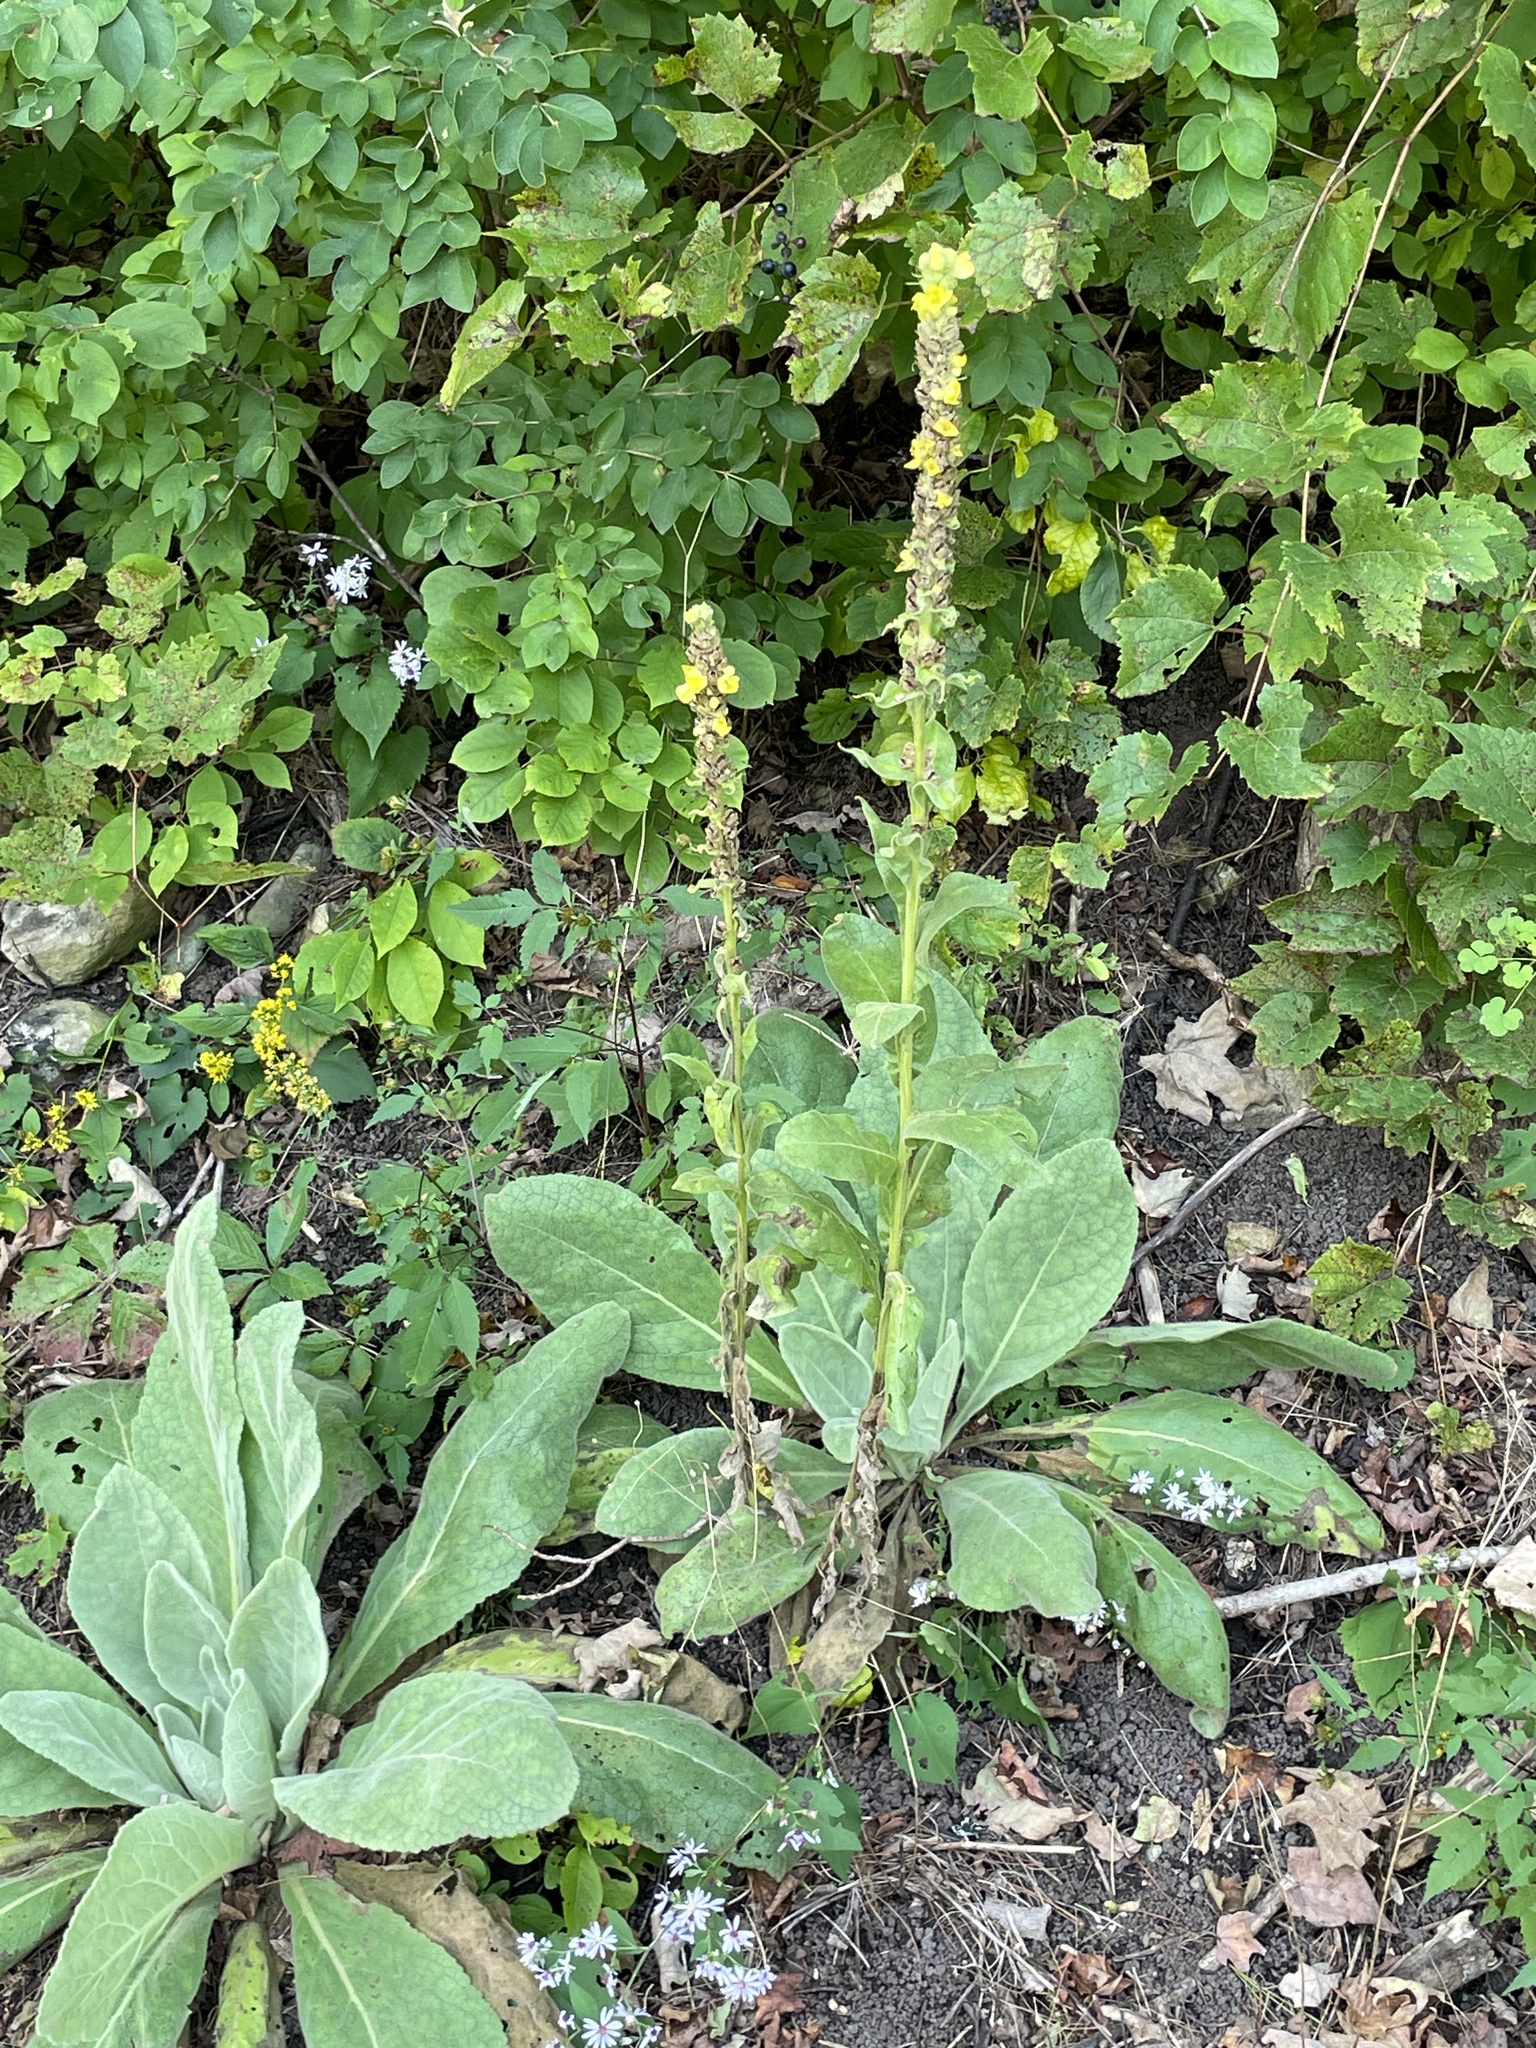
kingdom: Plantae
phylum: Tracheophyta
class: Magnoliopsida
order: Lamiales
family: Scrophulariaceae
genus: Verbascum
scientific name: Verbascum thapsus
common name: Common mullein
